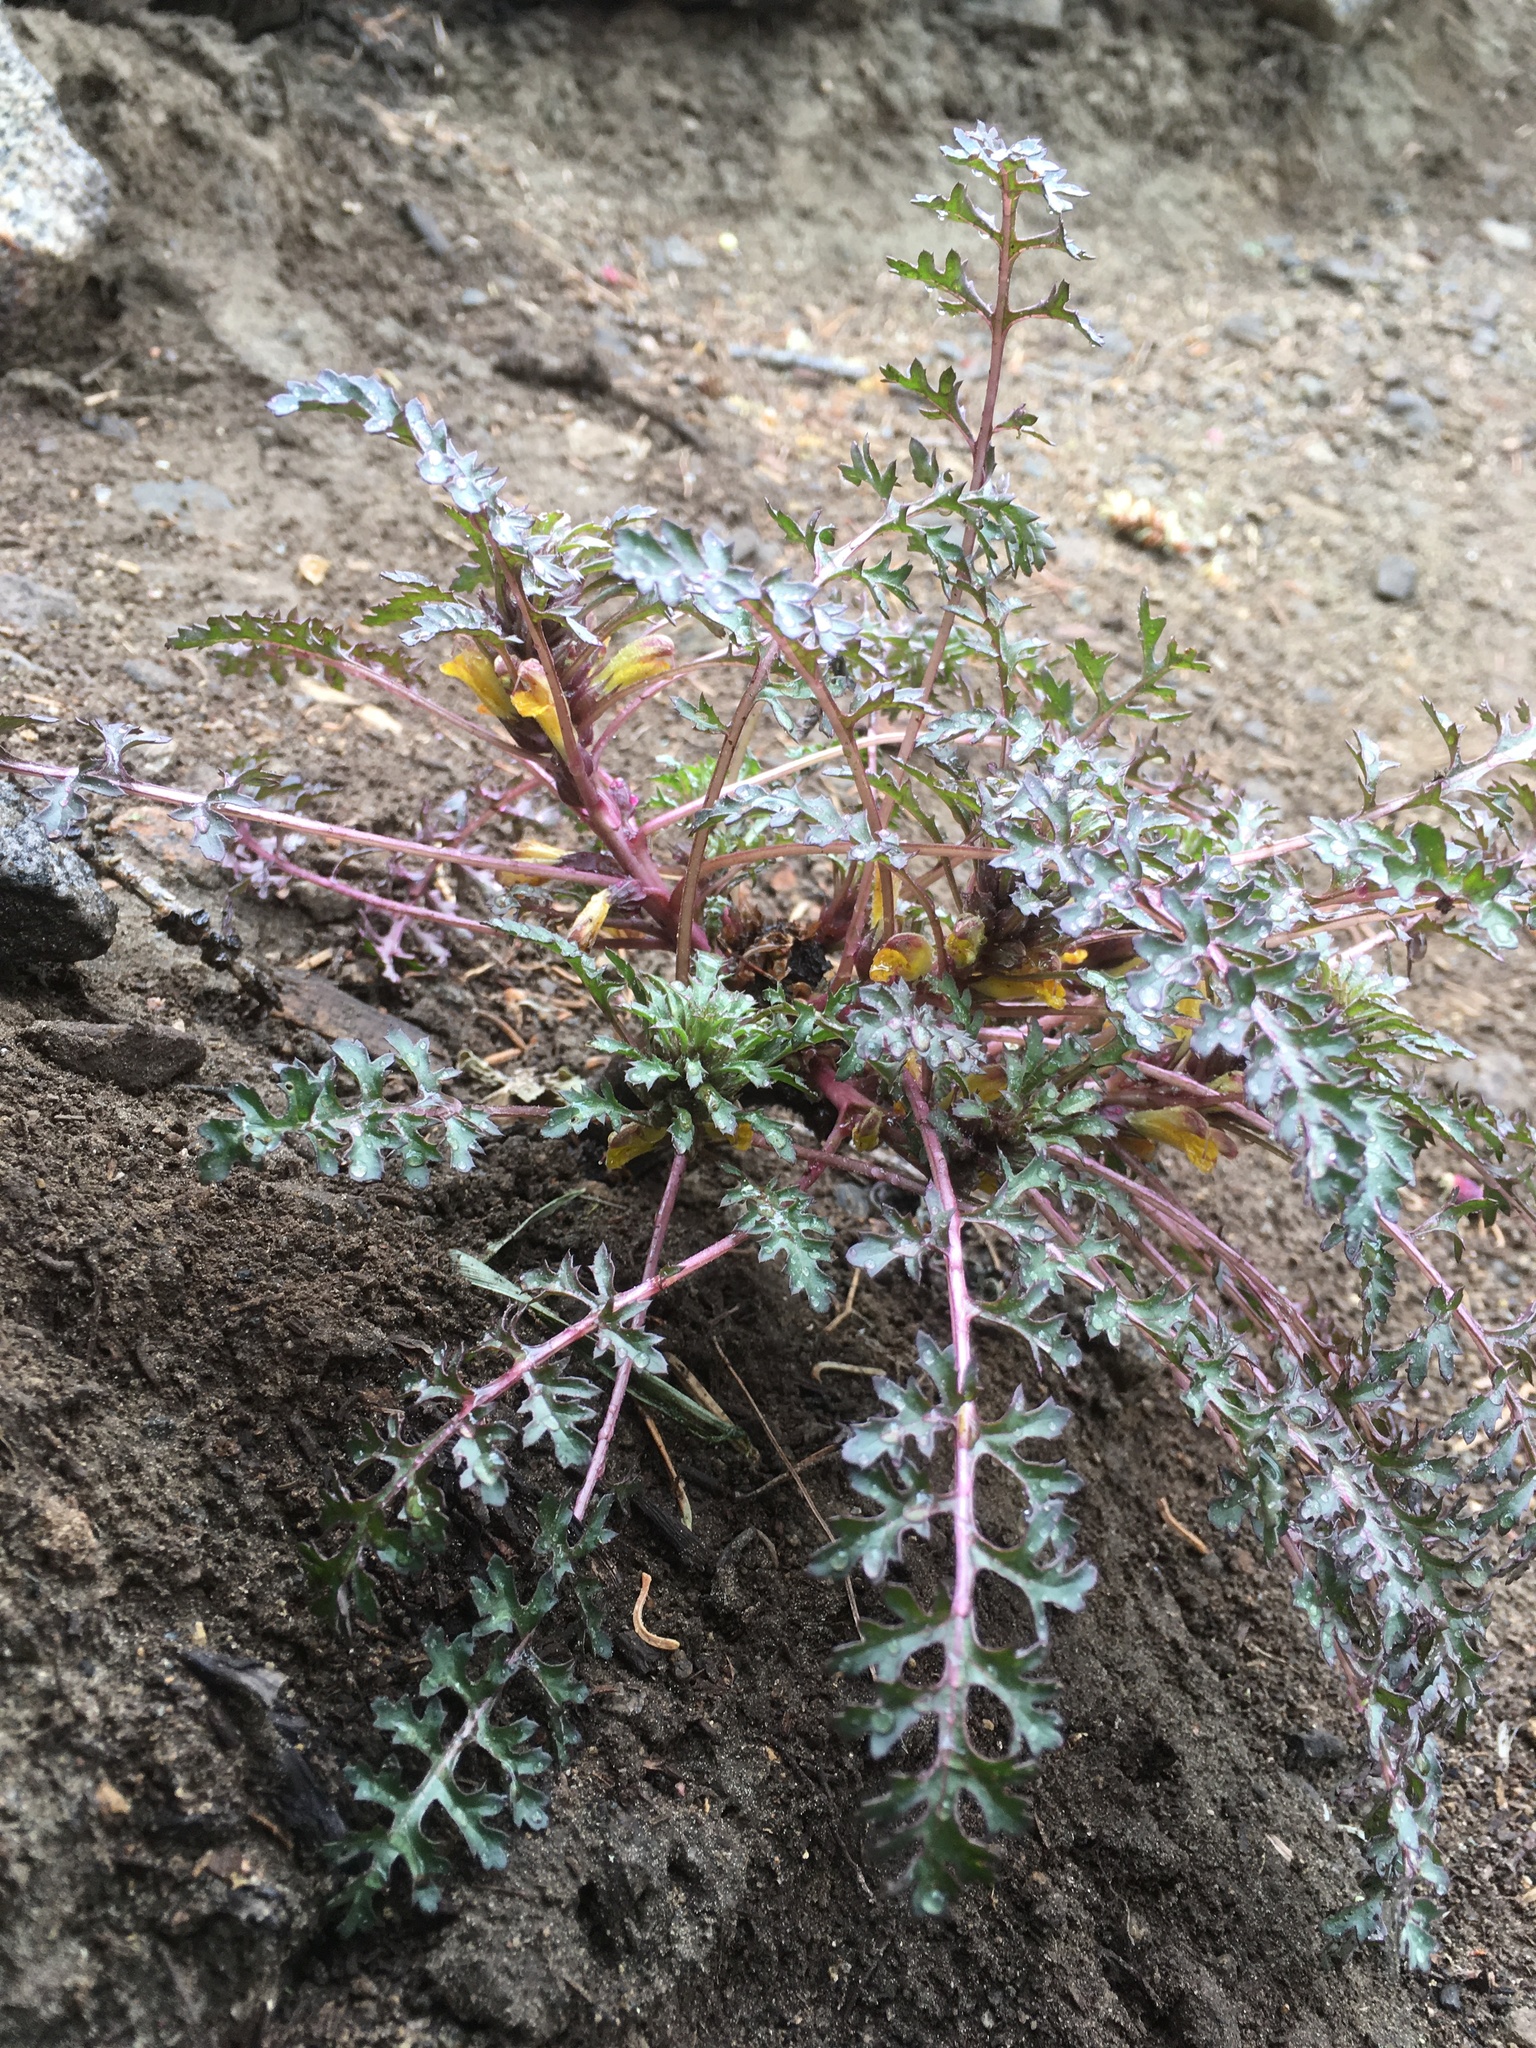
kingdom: Plantae
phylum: Tracheophyta
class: Magnoliopsida
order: Lamiales
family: Orobanchaceae
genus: Pedicularis
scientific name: Pedicularis semibarbata
